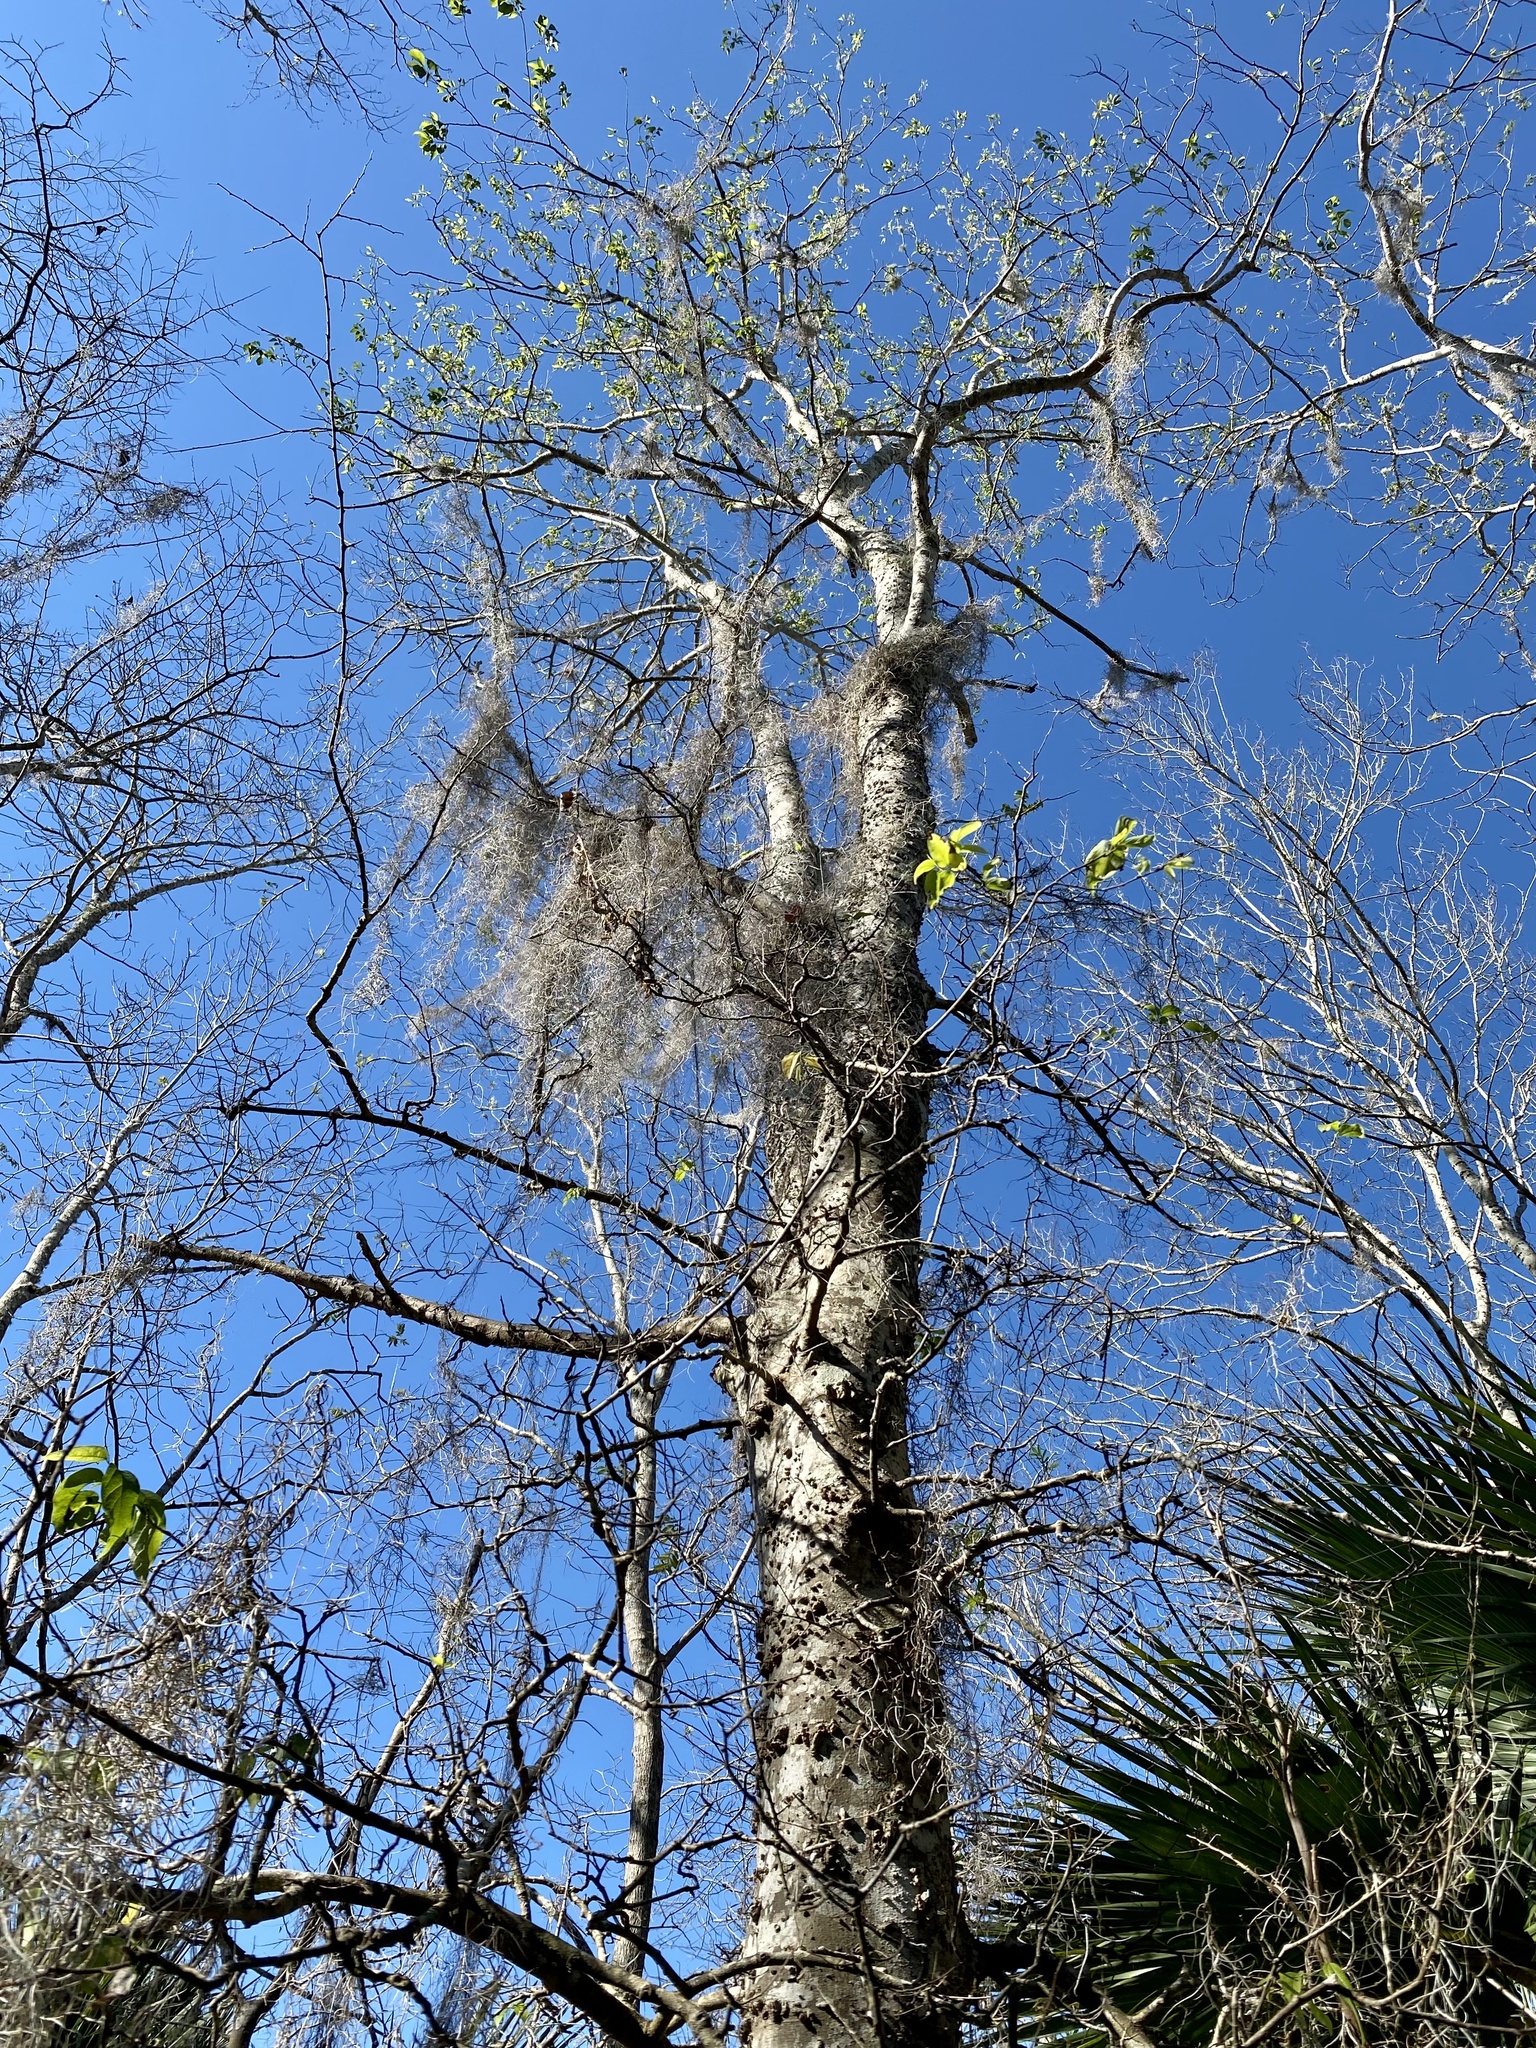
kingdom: Plantae
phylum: Tracheophyta
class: Magnoliopsida
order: Rosales
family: Cannabaceae
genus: Celtis
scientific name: Celtis laevigata
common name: Sugarberry
